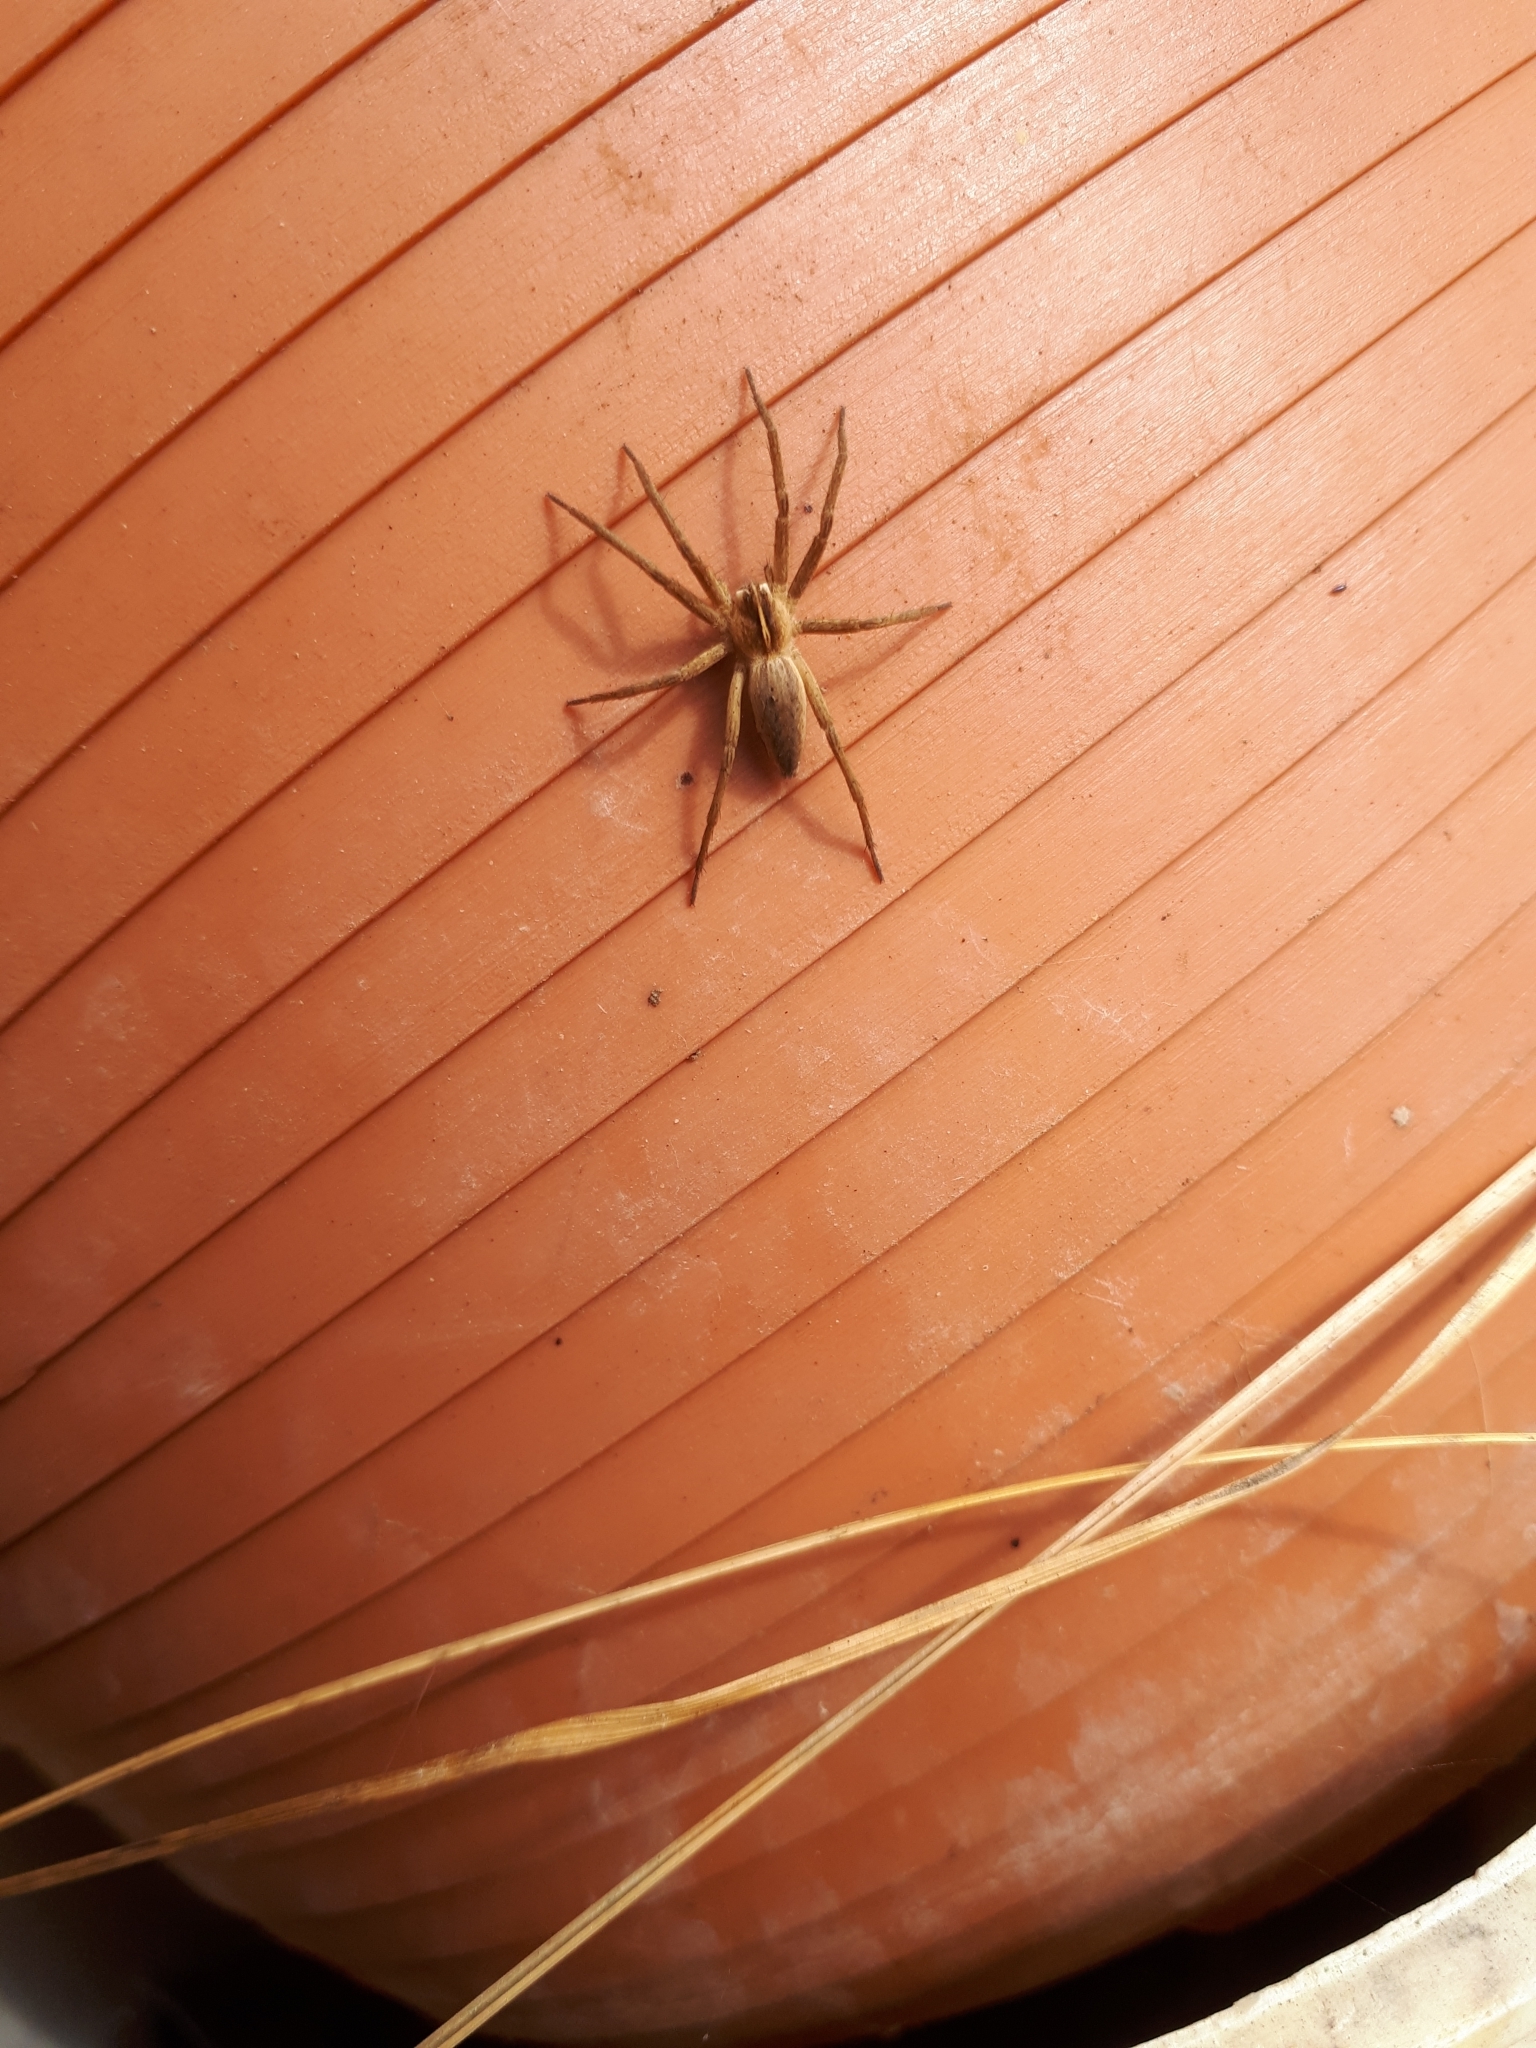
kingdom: Animalia
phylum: Arthropoda
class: Arachnida
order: Araneae
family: Pisauridae
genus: Pisaura
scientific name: Pisaura mirabilis
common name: Tent spider
